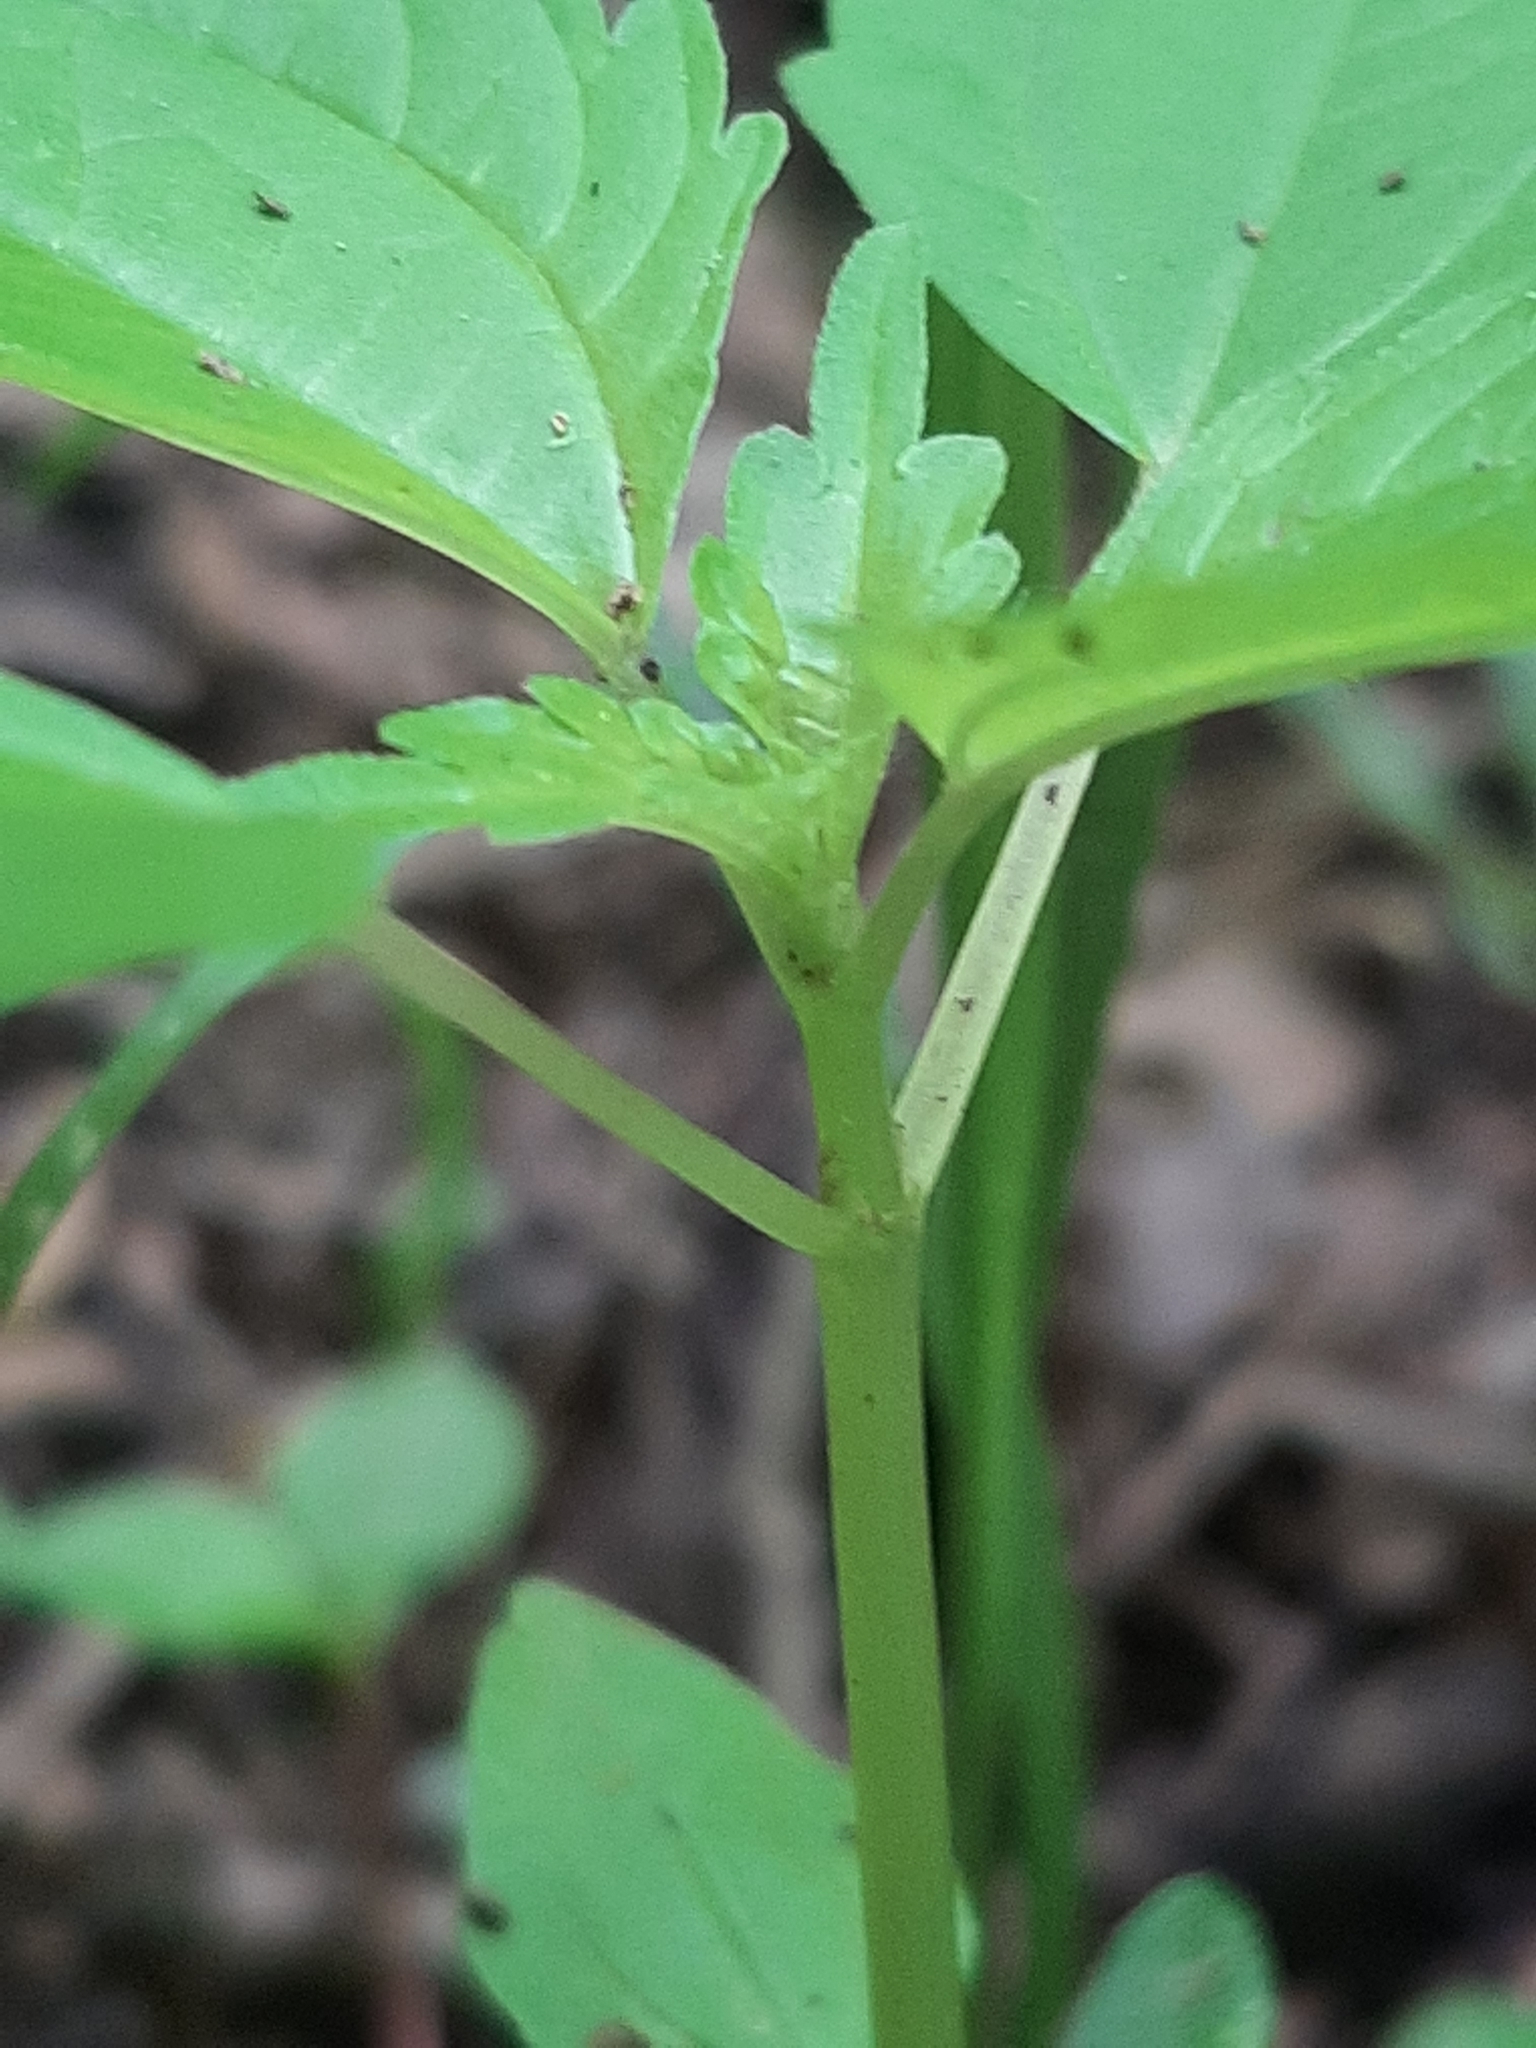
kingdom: Plantae
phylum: Tracheophyta
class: Magnoliopsida
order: Rosales
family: Urticaceae
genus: Pilea
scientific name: Pilea pumila
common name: Clearweed
